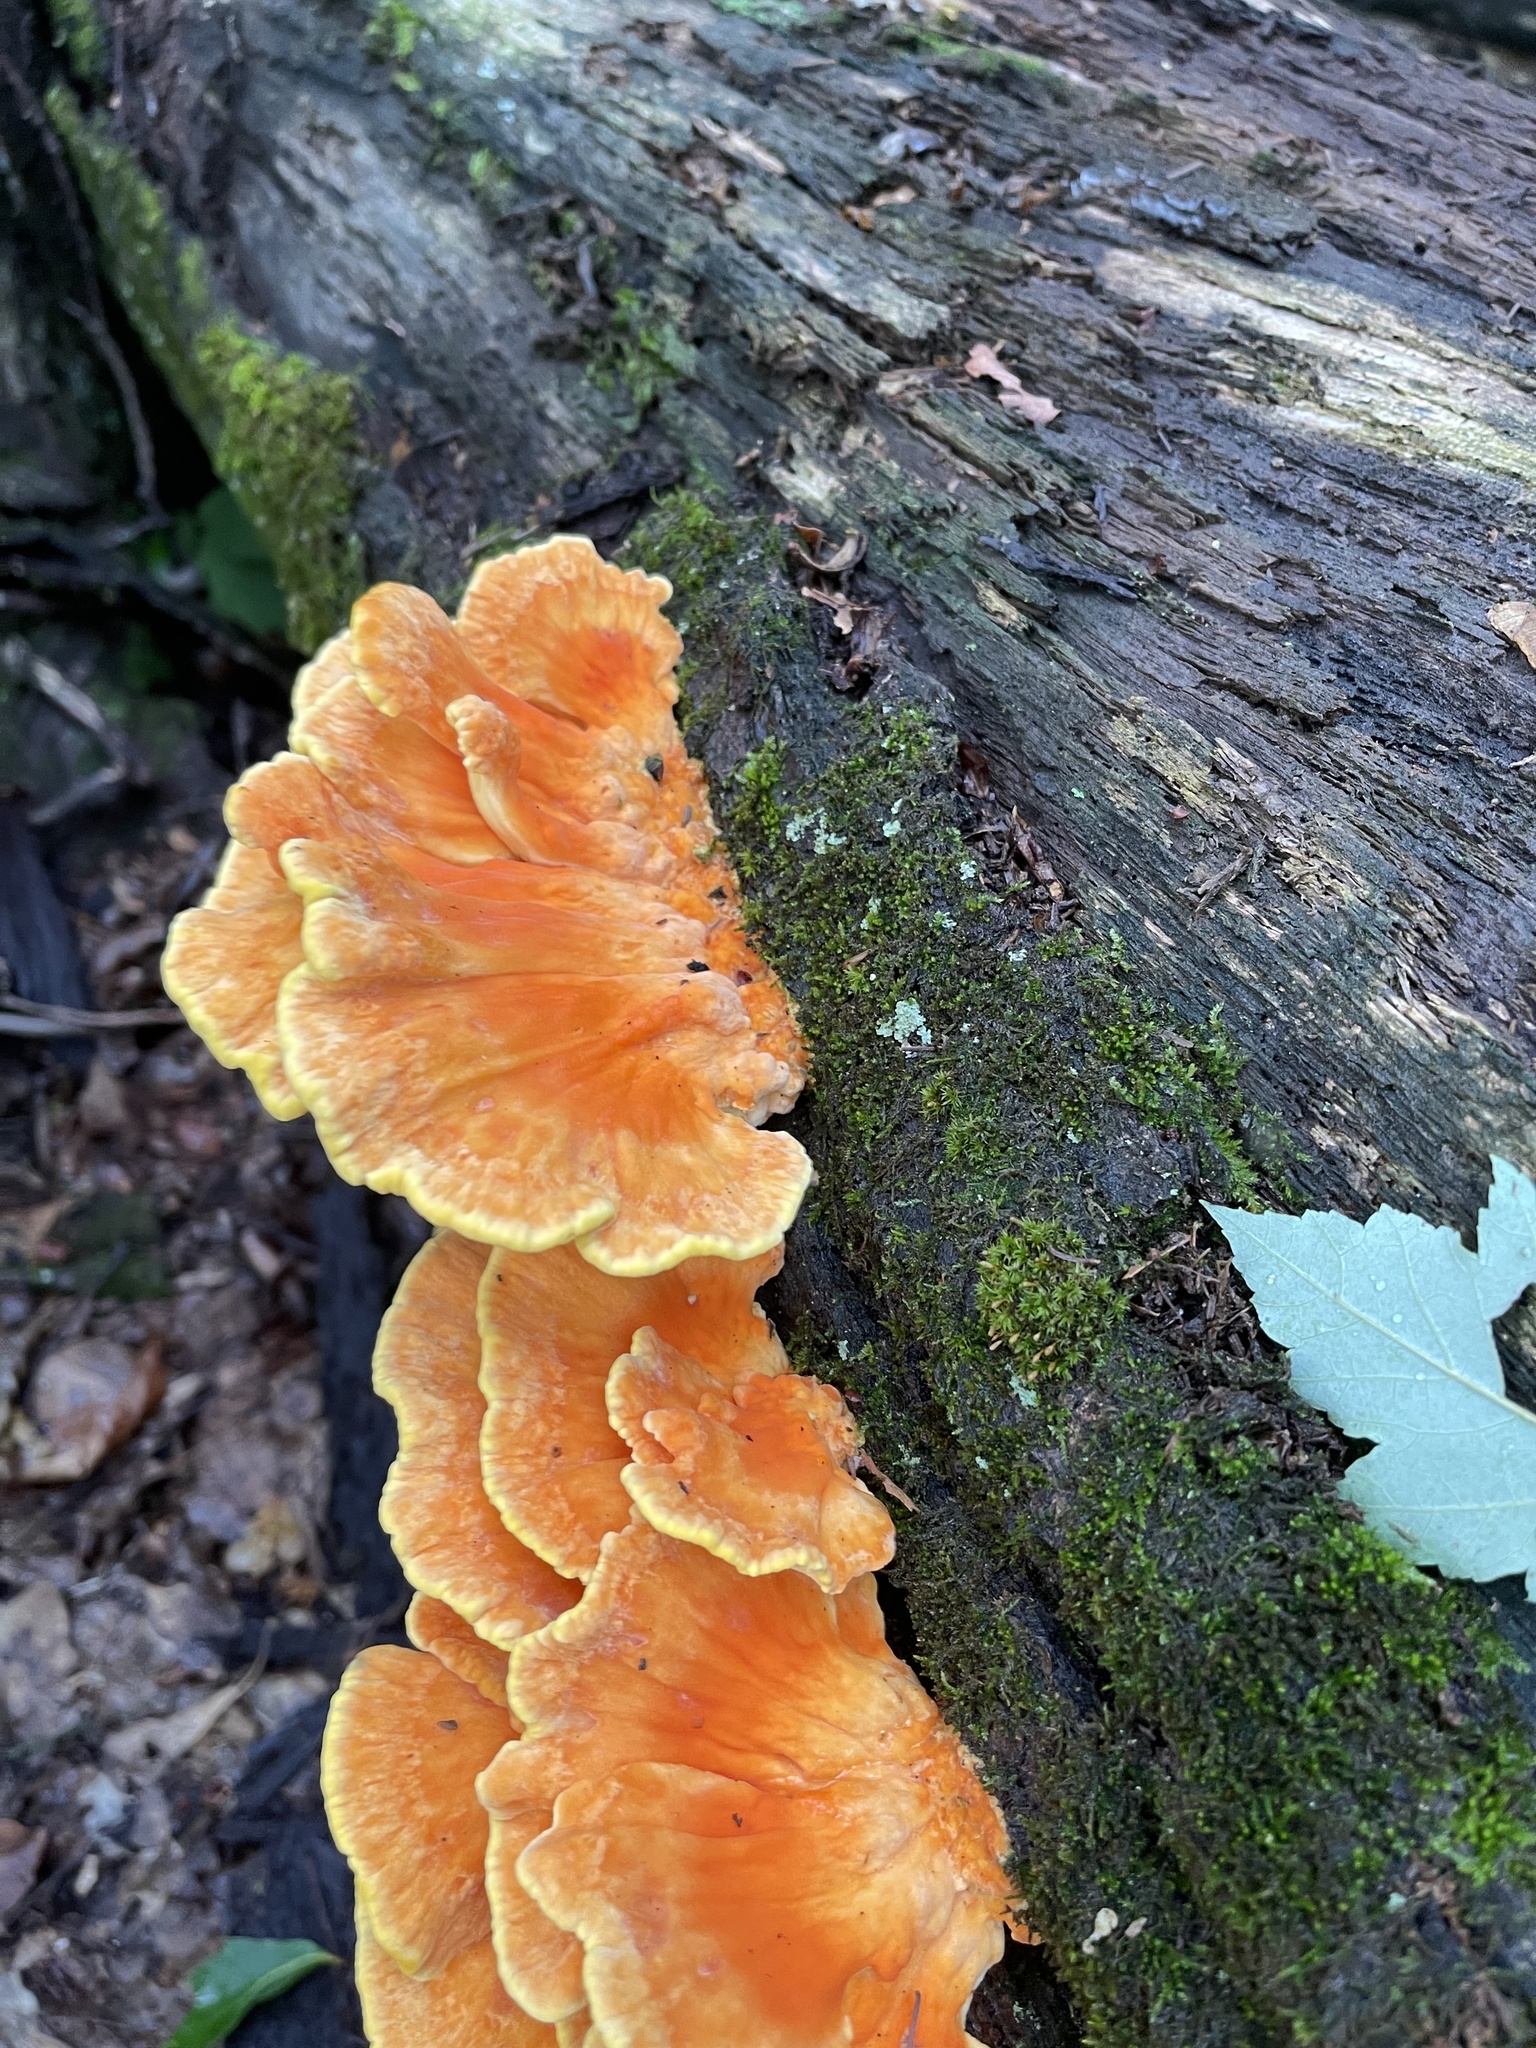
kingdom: Fungi
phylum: Basidiomycota
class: Agaricomycetes
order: Polyporales
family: Laetiporaceae
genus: Laetiporus
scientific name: Laetiporus sulphureus
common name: Chicken of the woods
